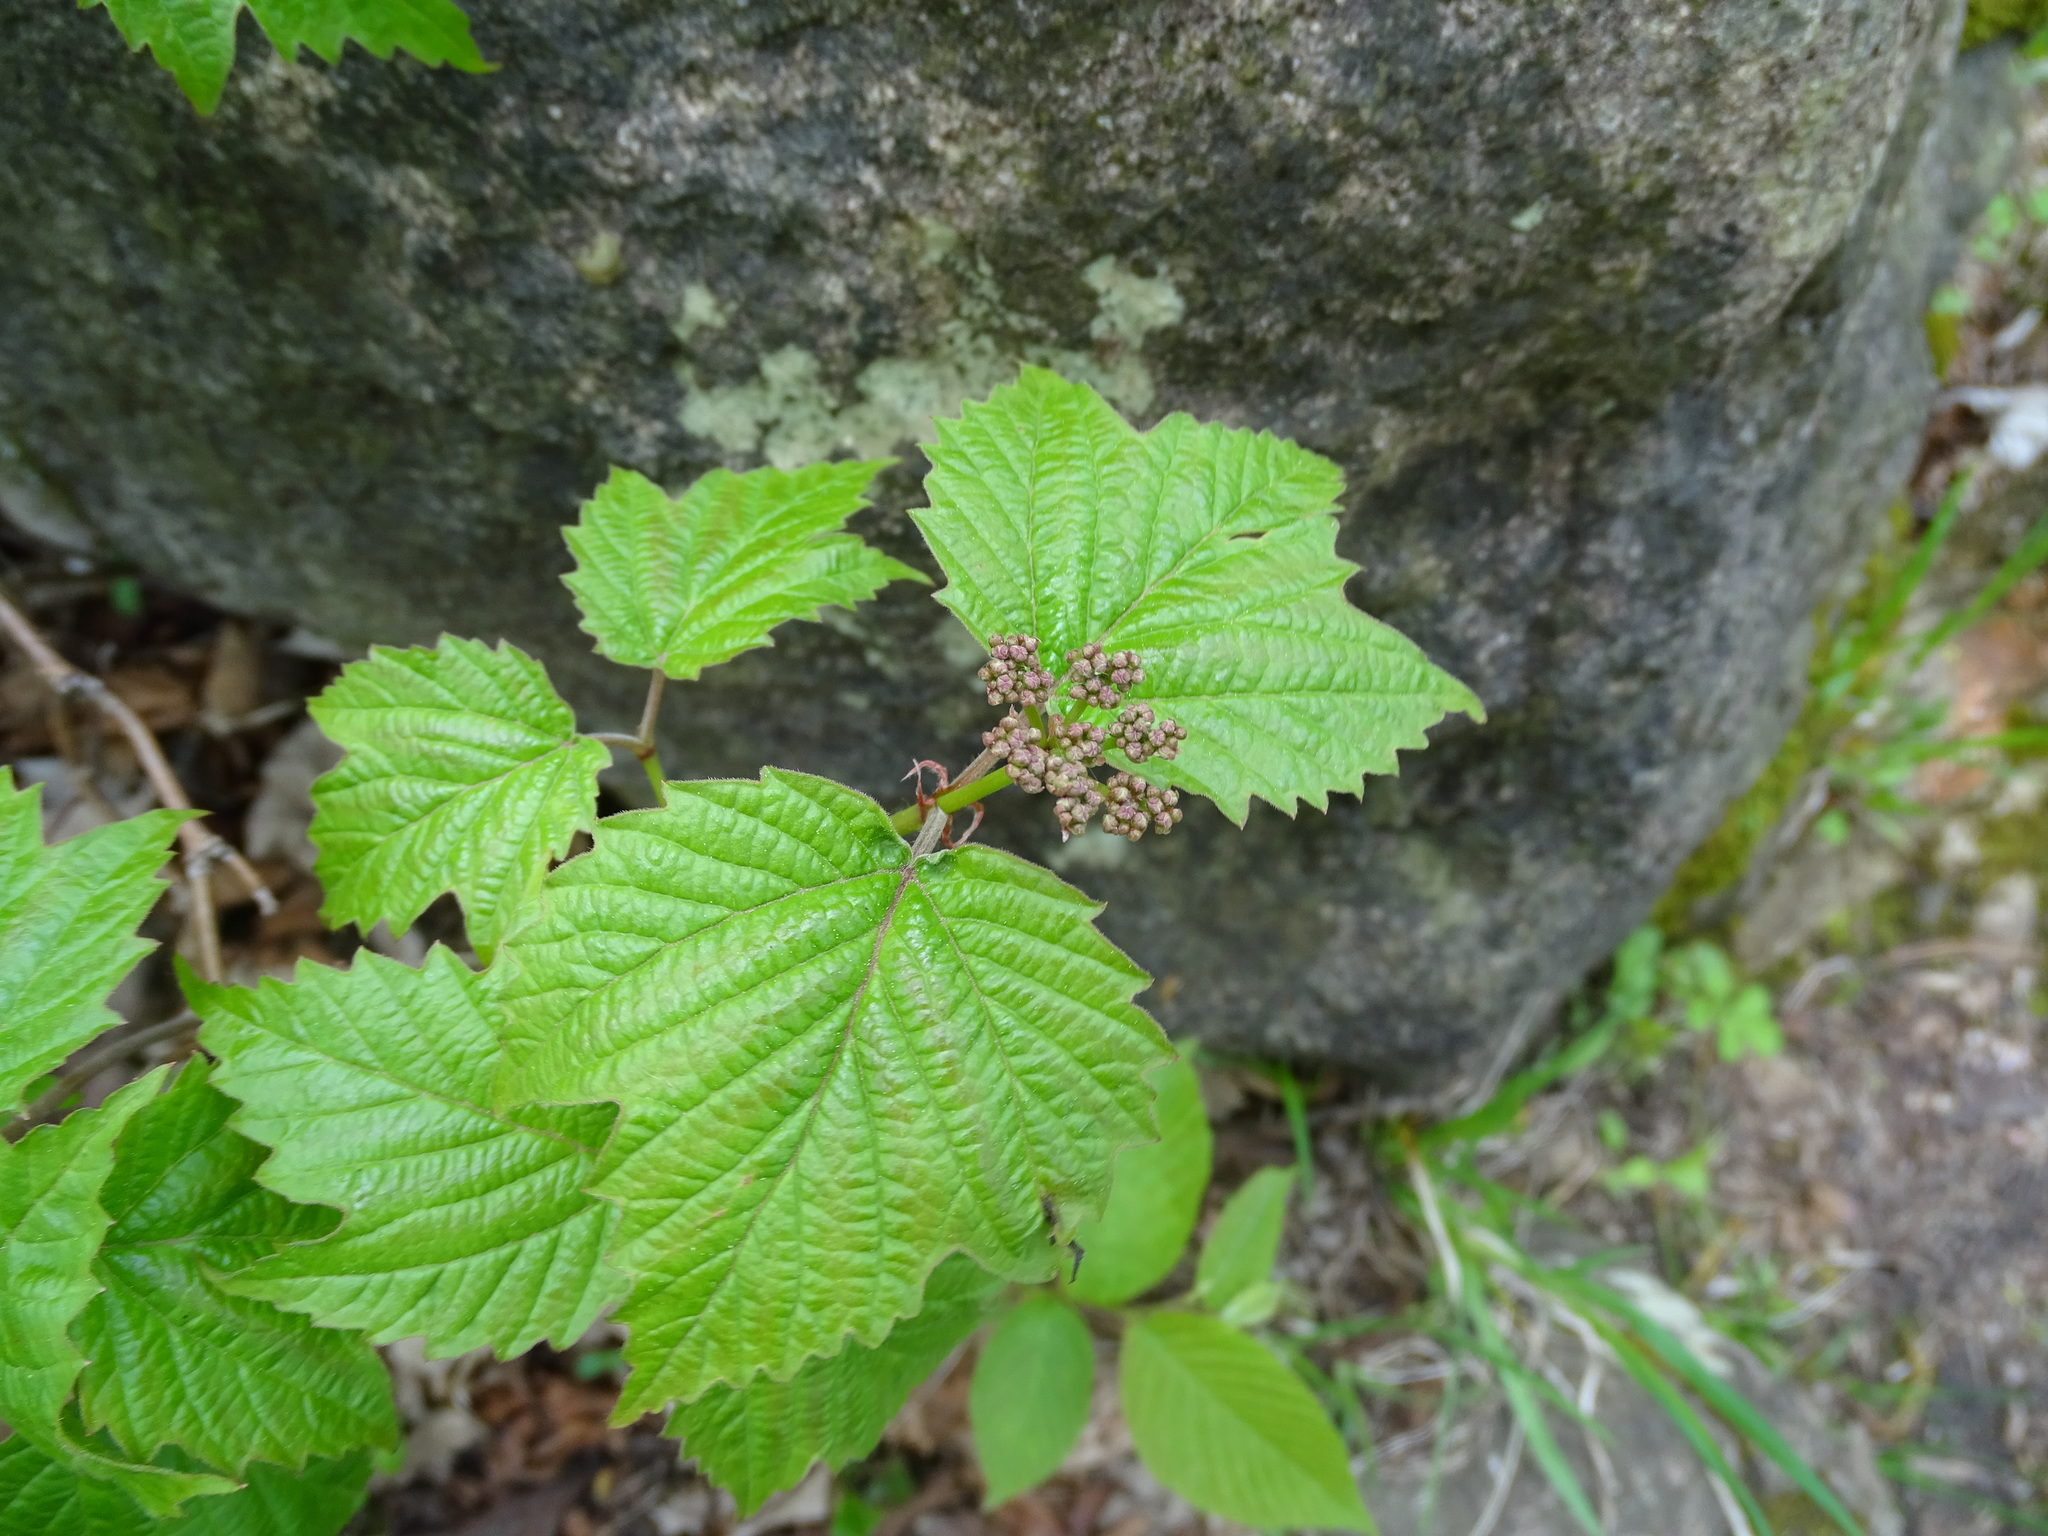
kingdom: Plantae
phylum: Tracheophyta
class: Magnoliopsida
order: Dipsacales
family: Viburnaceae
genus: Viburnum
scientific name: Viburnum acerifolium
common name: Dockmackie
